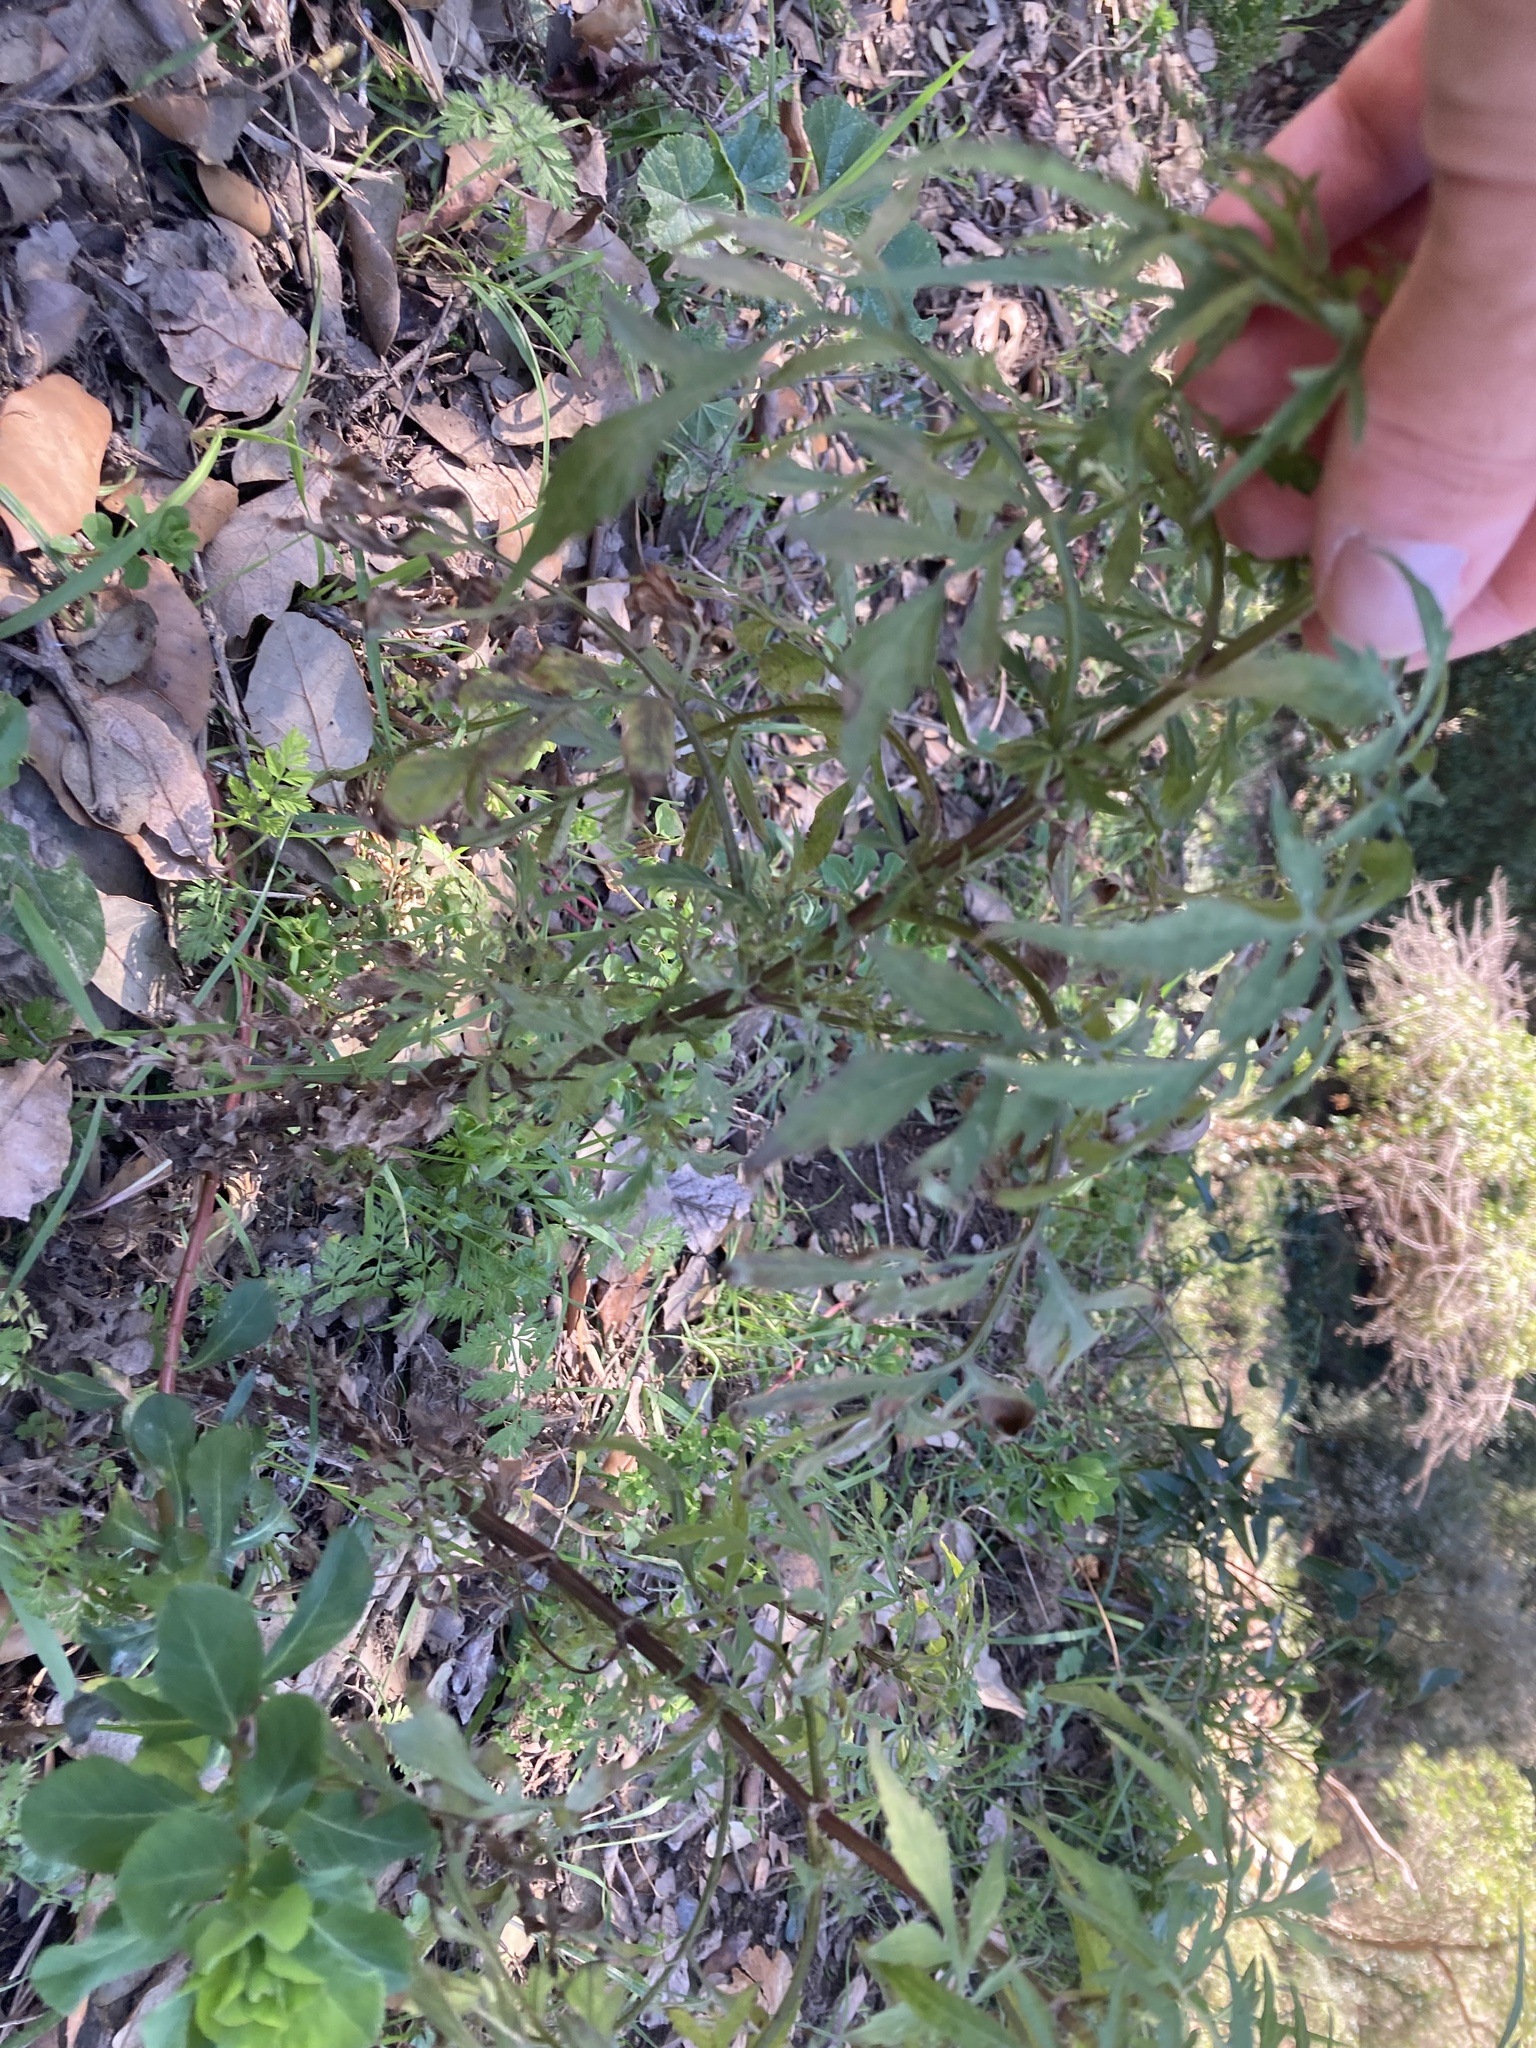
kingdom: Plantae
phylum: Tracheophyta
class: Magnoliopsida
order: Asterales
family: Asteraceae
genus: Bidens
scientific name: Bidens subalternans
